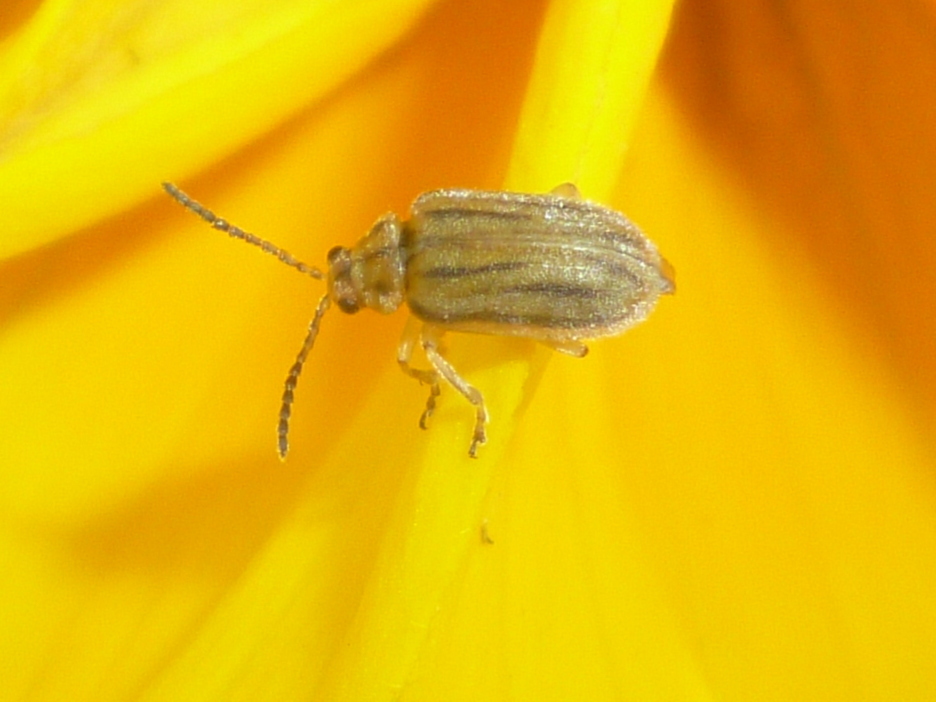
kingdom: Animalia
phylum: Arthropoda
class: Insecta
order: Coleoptera
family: Chrysomelidae
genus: Ophraella
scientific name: Ophraella communa
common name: Ragweed leaf beetle
